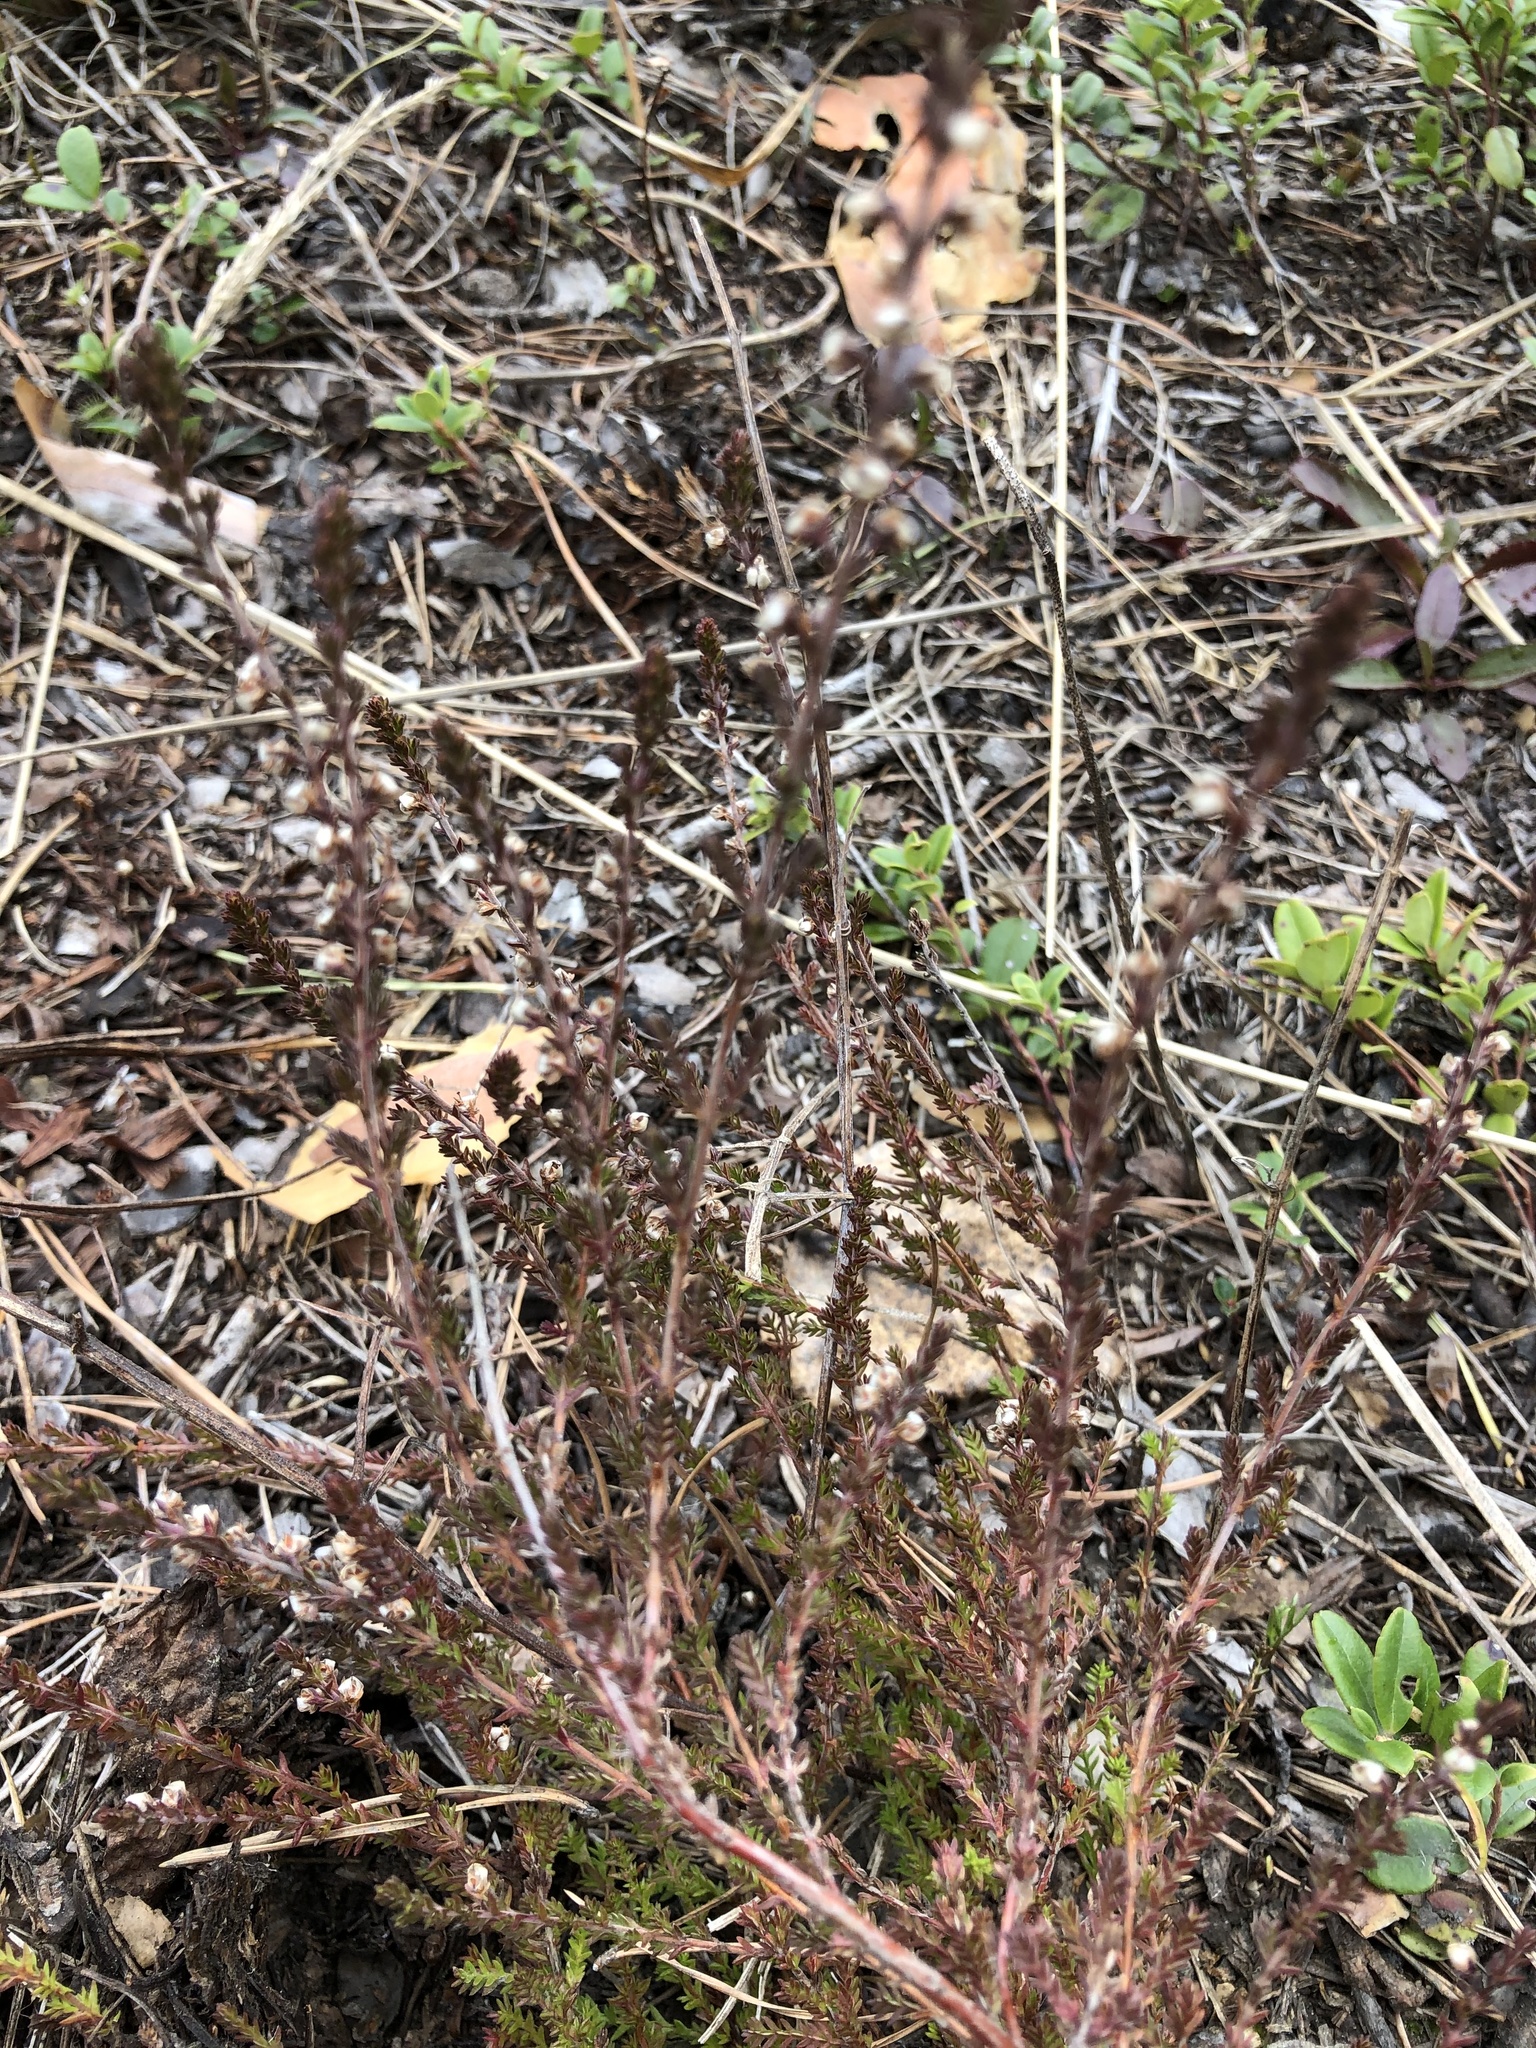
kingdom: Plantae
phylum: Tracheophyta
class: Magnoliopsida
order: Ericales
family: Ericaceae
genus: Calluna
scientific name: Calluna vulgaris
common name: Heather
